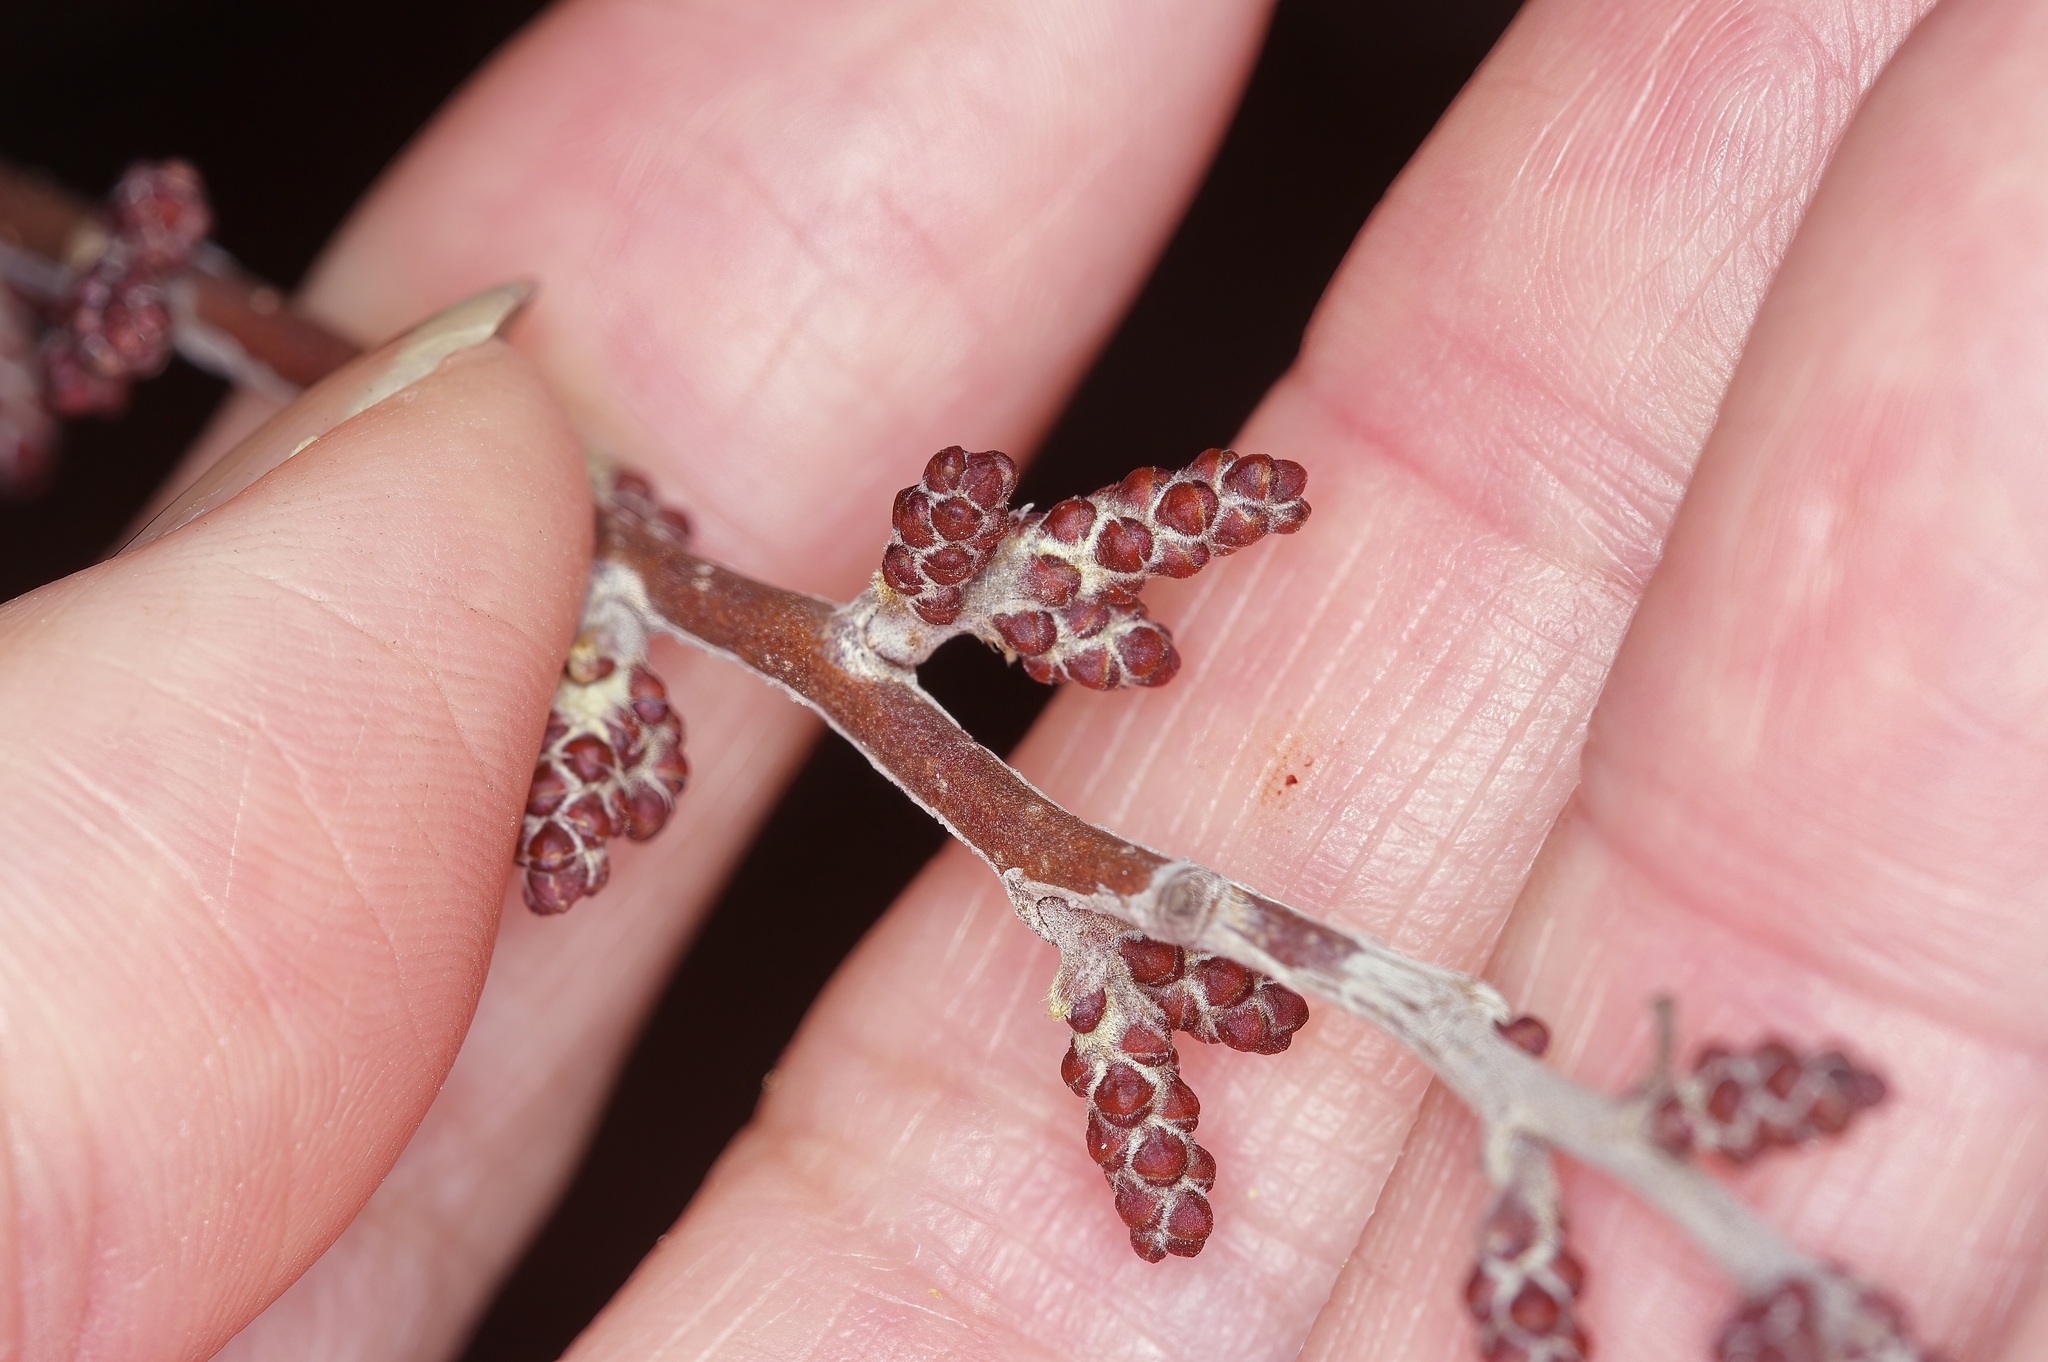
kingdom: Plantae
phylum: Tracheophyta
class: Magnoliopsida
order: Sapindales
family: Anacardiaceae
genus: Rhus
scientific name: Rhus aromatica
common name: Aromatic sumac
